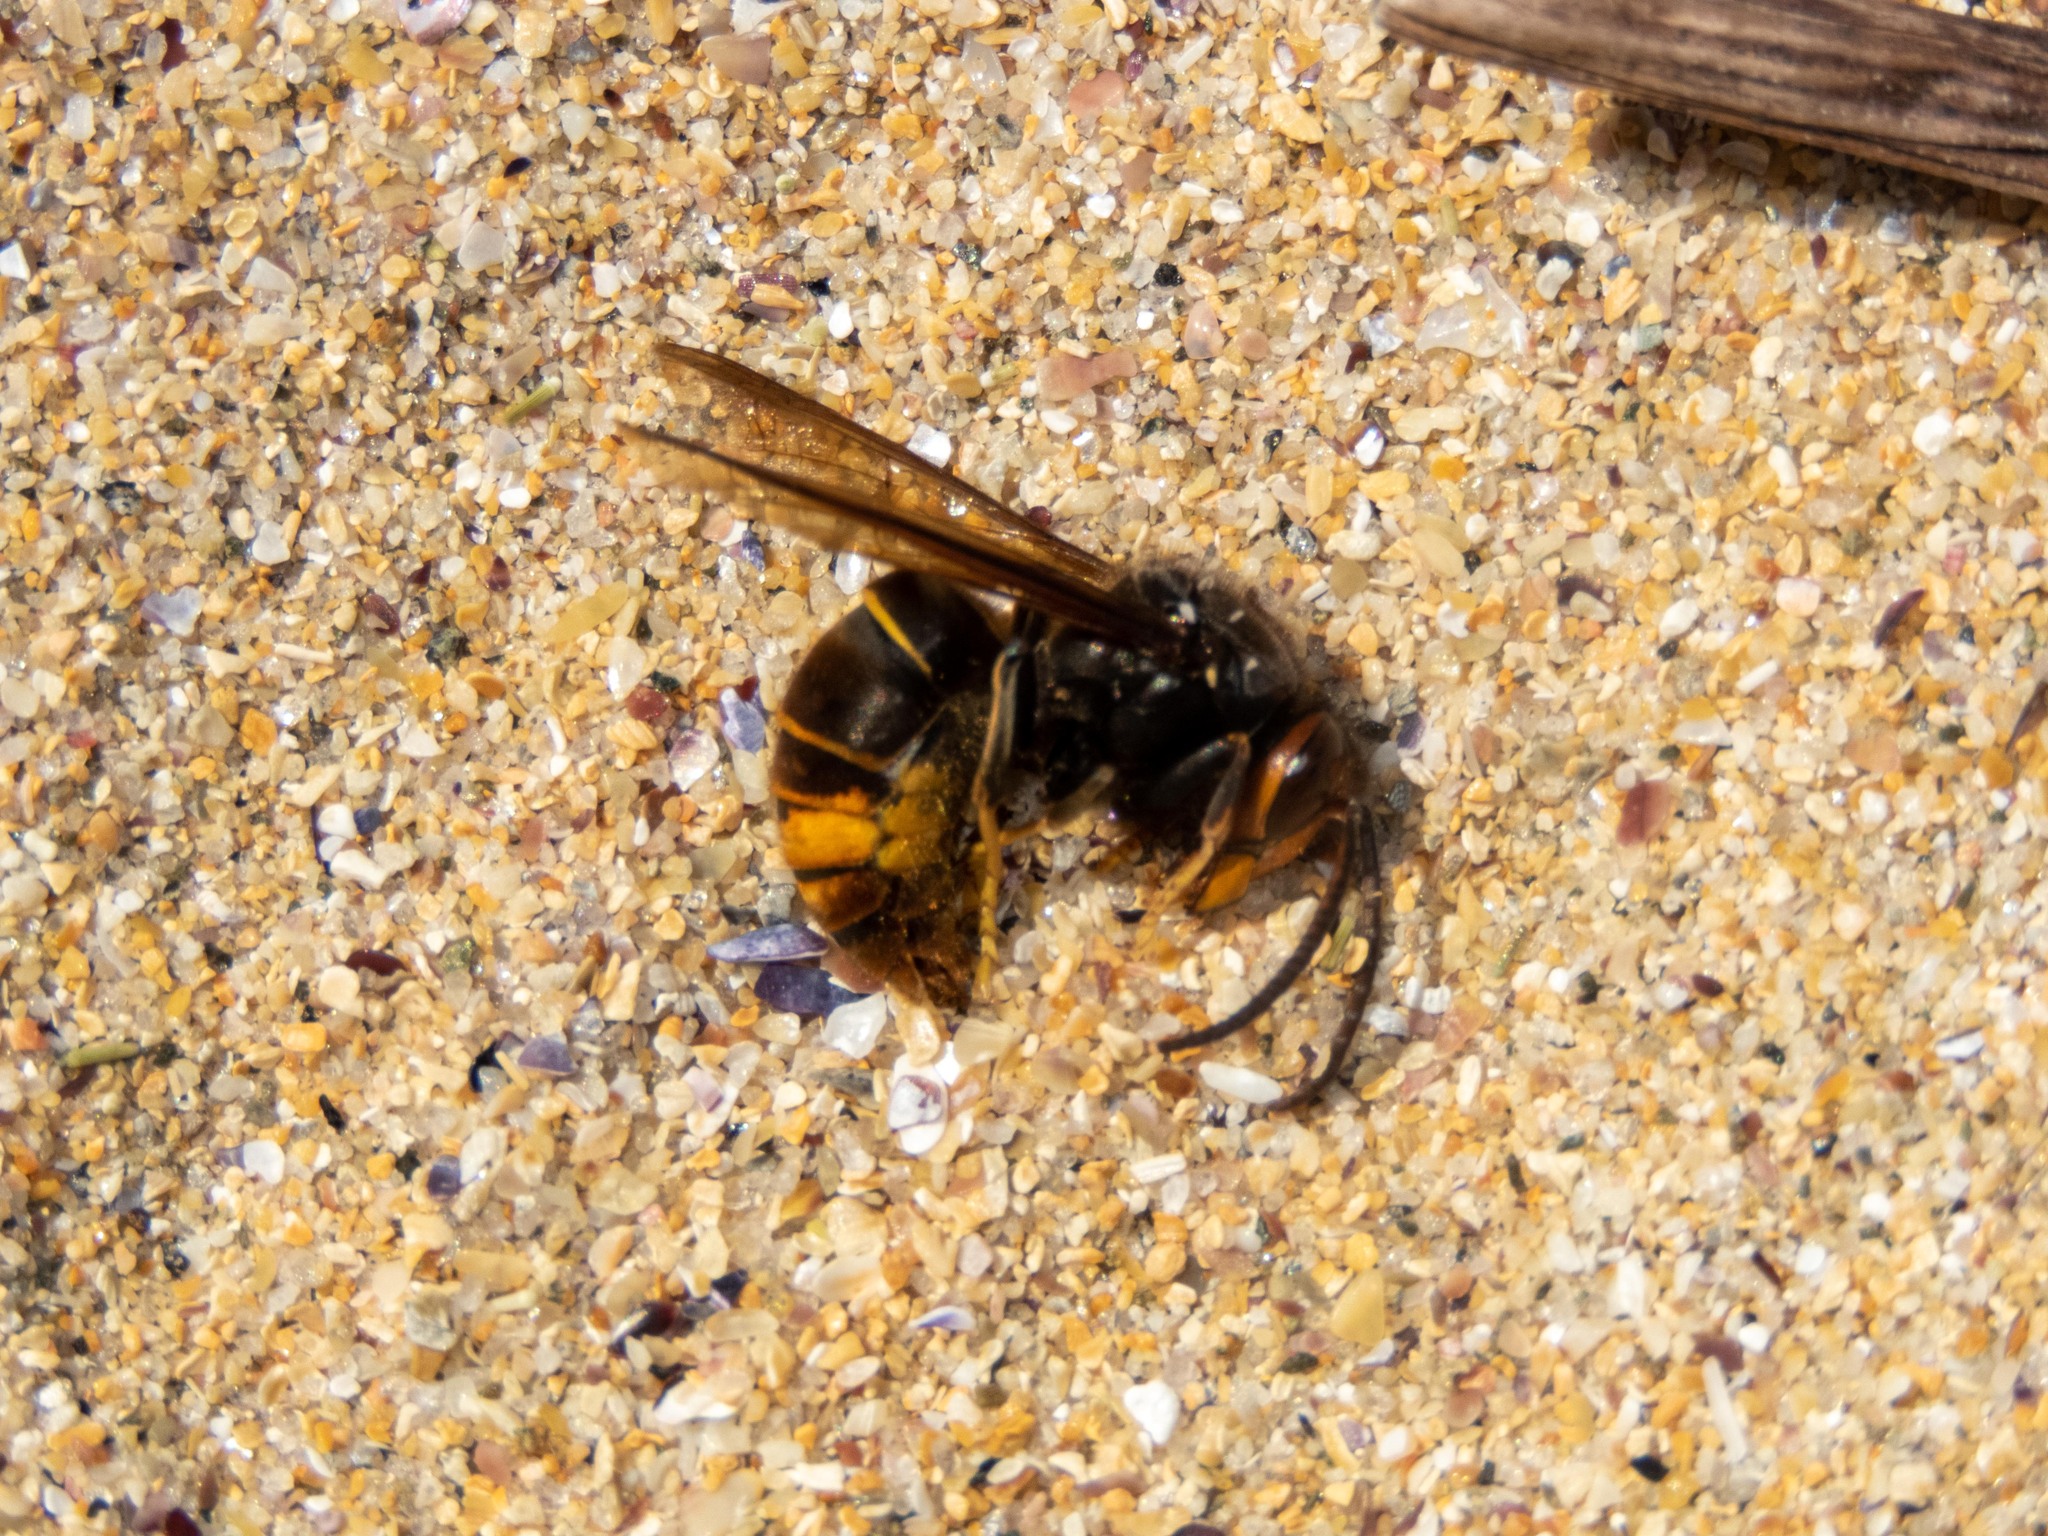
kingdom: Animalia
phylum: Arthropoda
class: Insecta
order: Hymenoptera
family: Vespidae
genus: Vespa
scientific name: Vespa velutina
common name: Asian hornet
